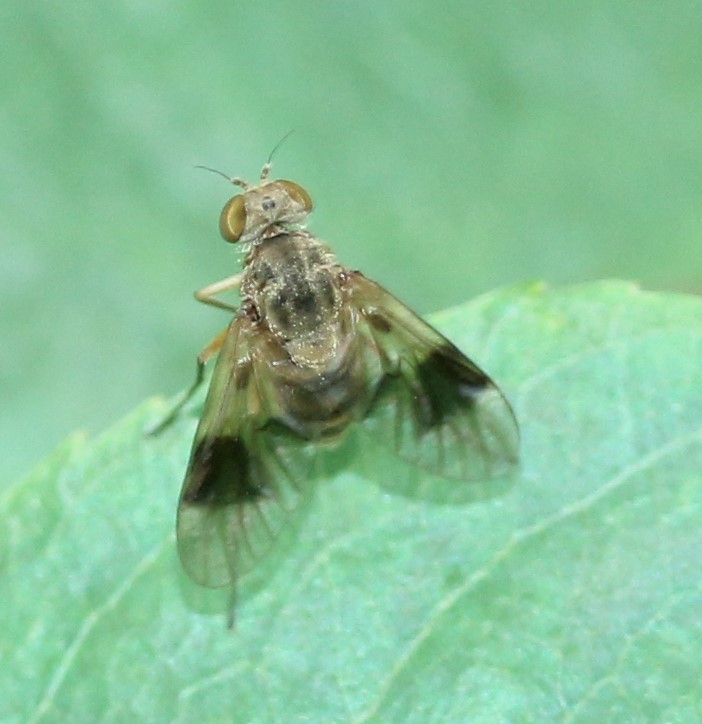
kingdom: Animalia
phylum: Arthropoda
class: Insecta
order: Diptera
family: Rhagionidae
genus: Chrysopilus
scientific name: Chrysopilus quadratus
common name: Quadrate snipe fly
